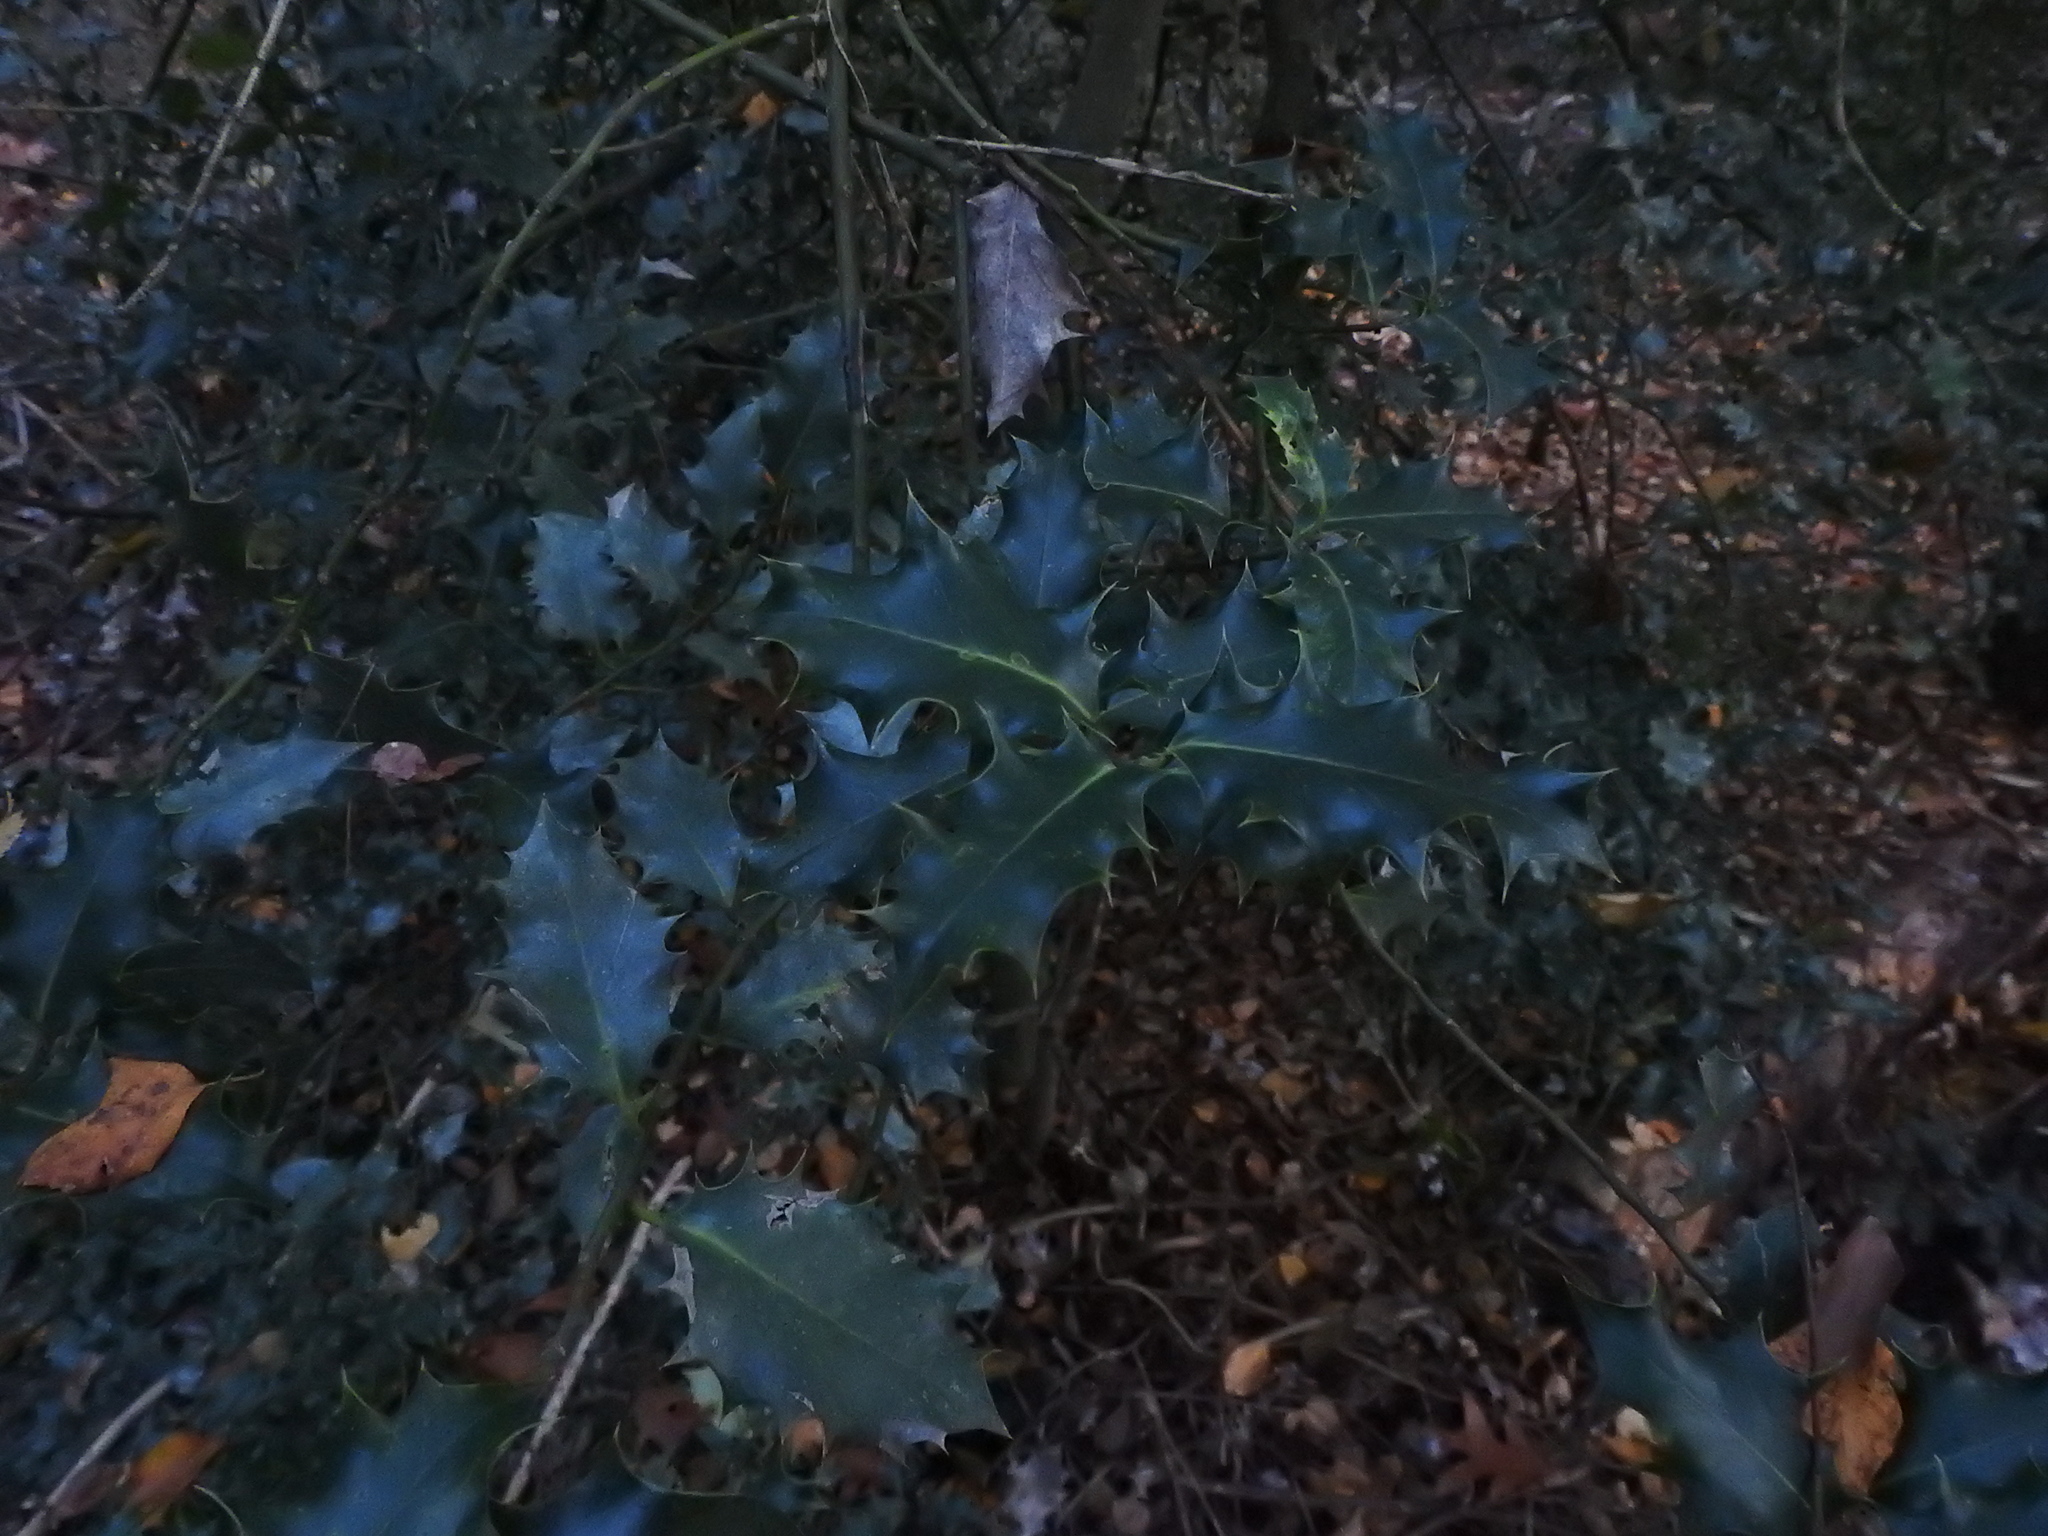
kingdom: Plantae
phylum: Tracheophyta
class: Magnoliopsida
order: Aquifoliales
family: Aquifoliaceae
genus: Ilex
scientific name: Ilex aquifolium
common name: English holly
